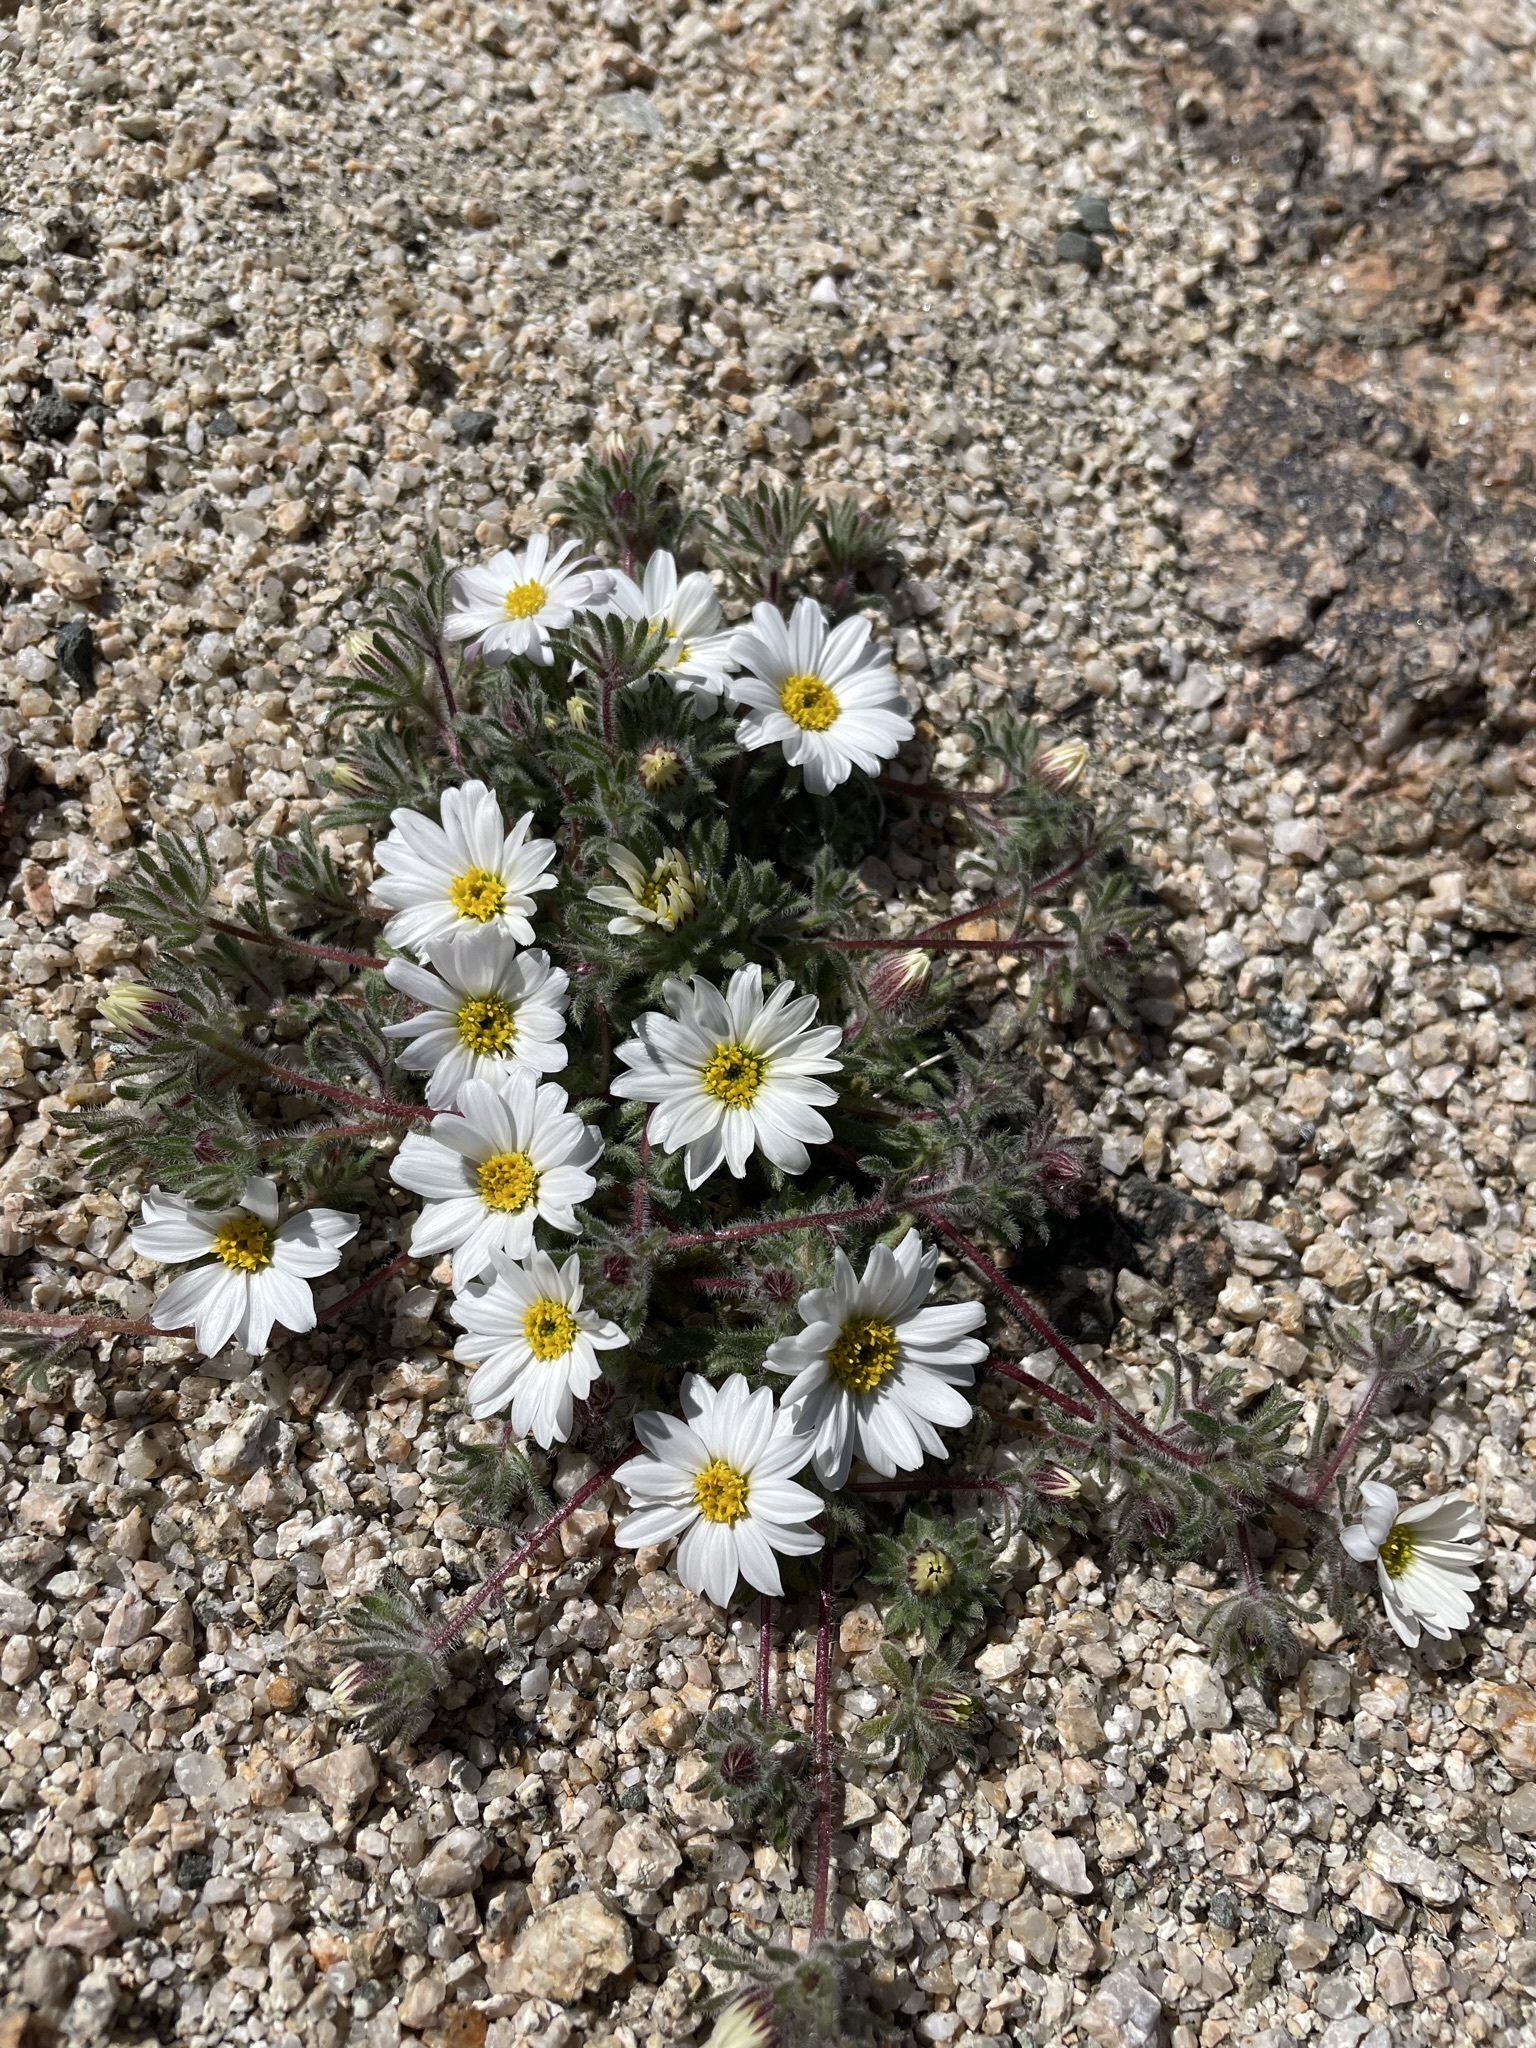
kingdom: Plantae
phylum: Tracheophyta
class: Magnoliopsida
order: Asterales
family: Asteraceae
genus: Monoptilon
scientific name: Monoptilon bellioides
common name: Bristly desertstar
